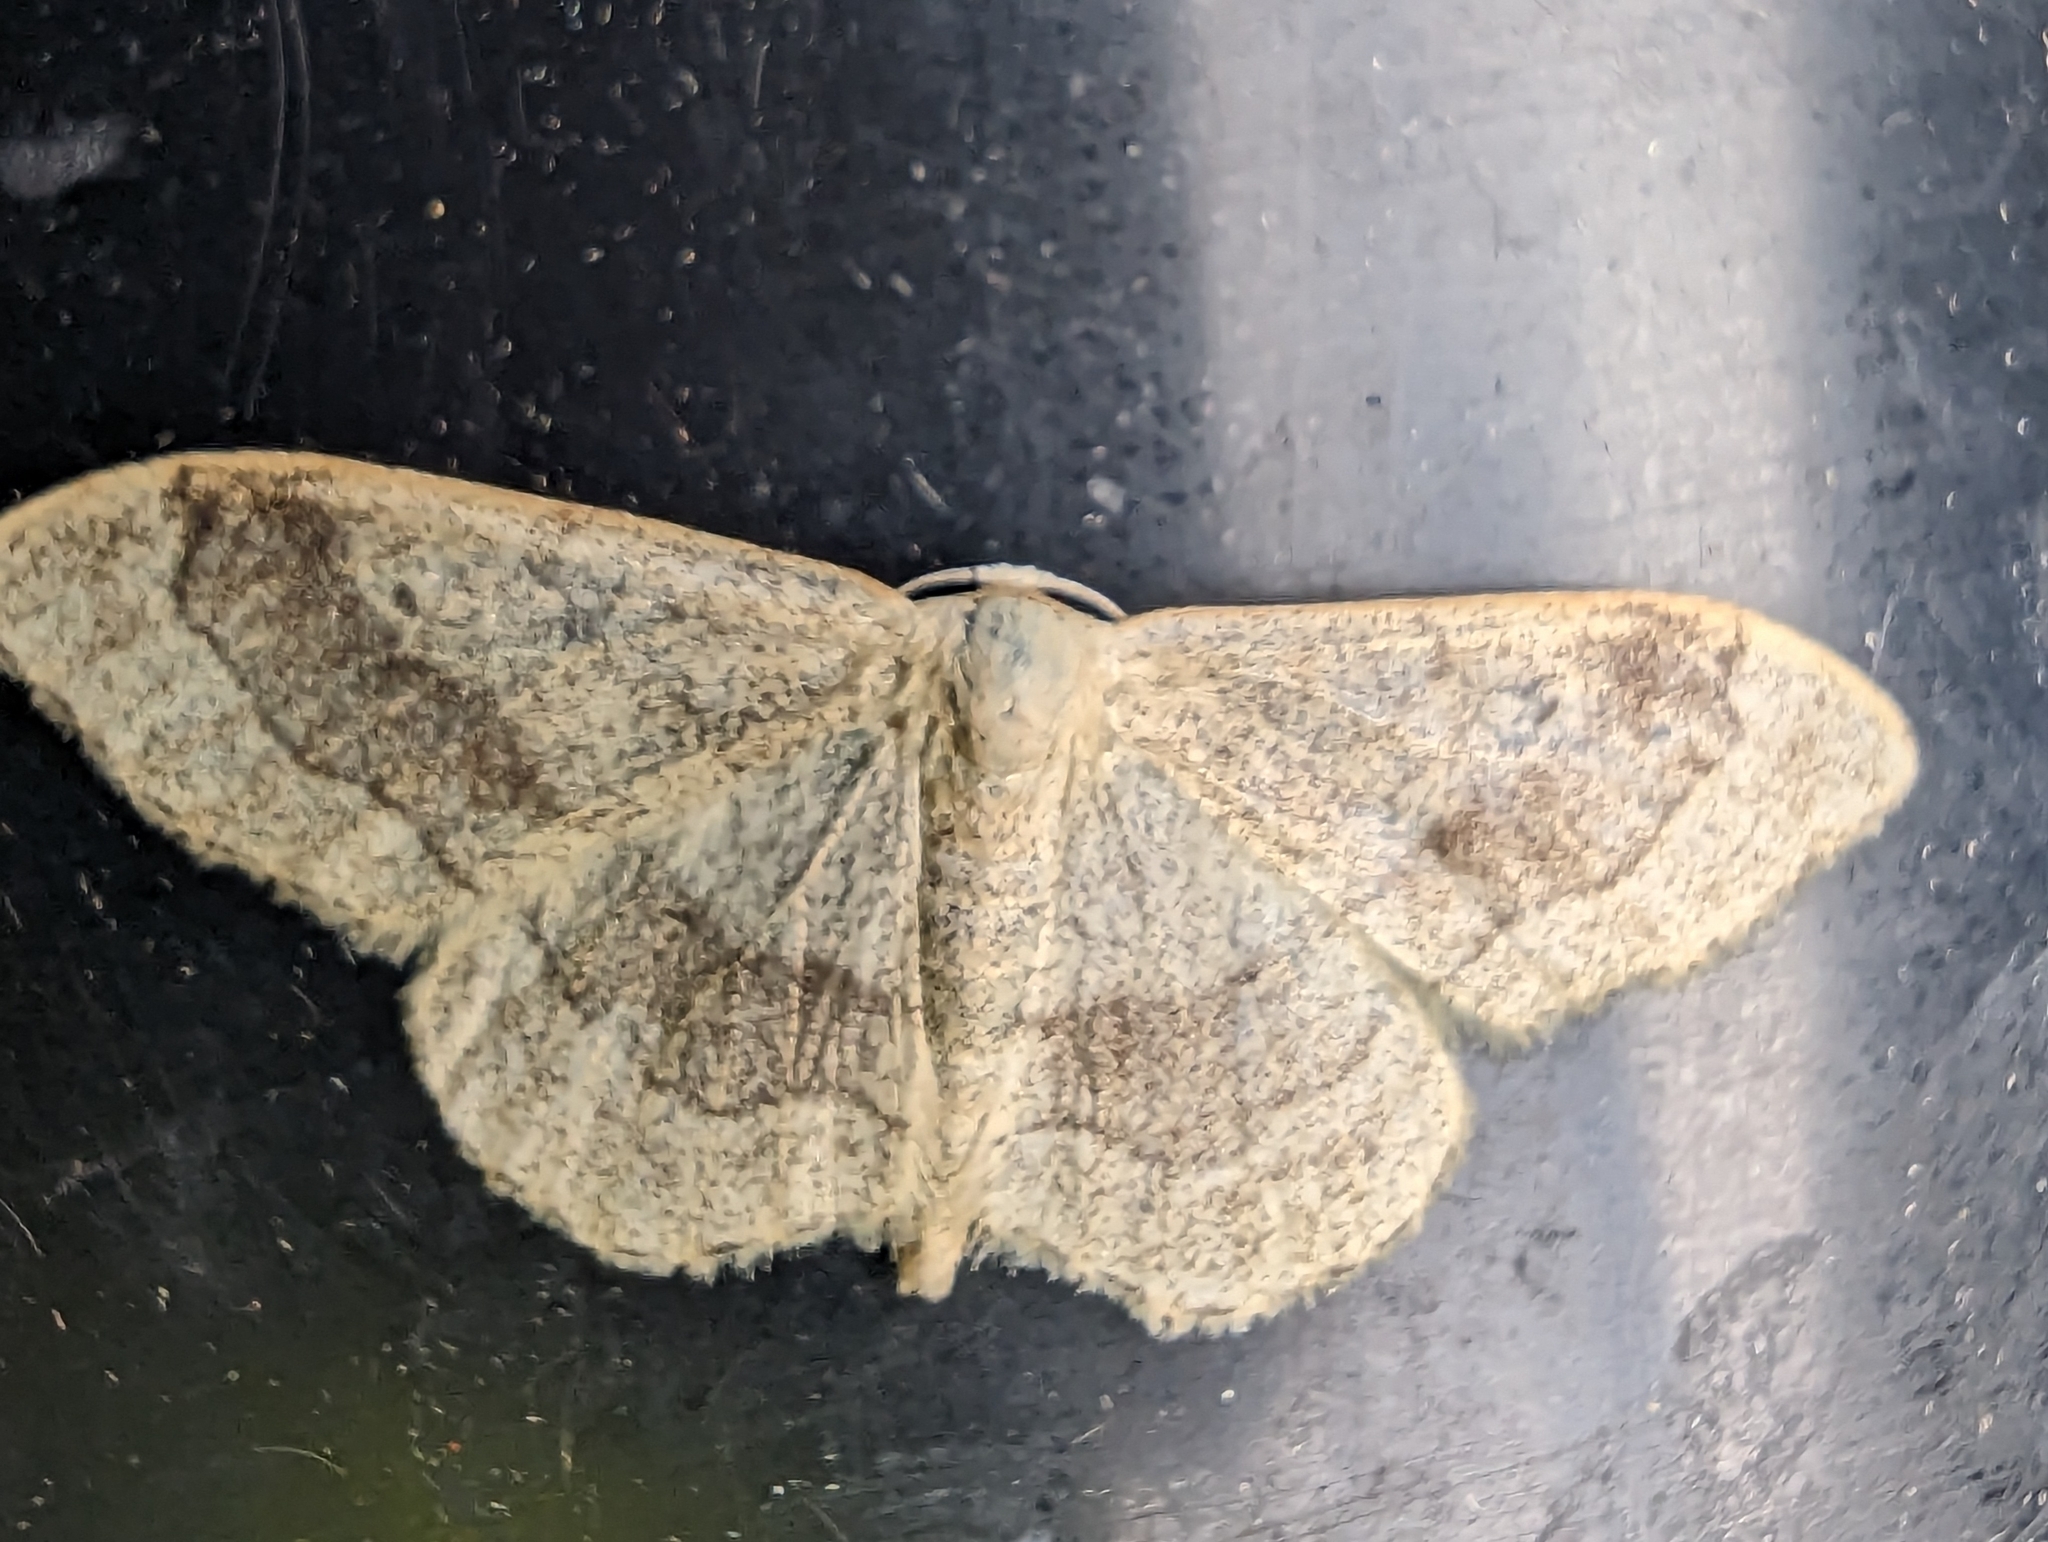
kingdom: Animalia
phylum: Arthropoda
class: Insecta
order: Lepidoptera
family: Geometridae
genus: Idaea
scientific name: Idaea aversata
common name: Riband wave
